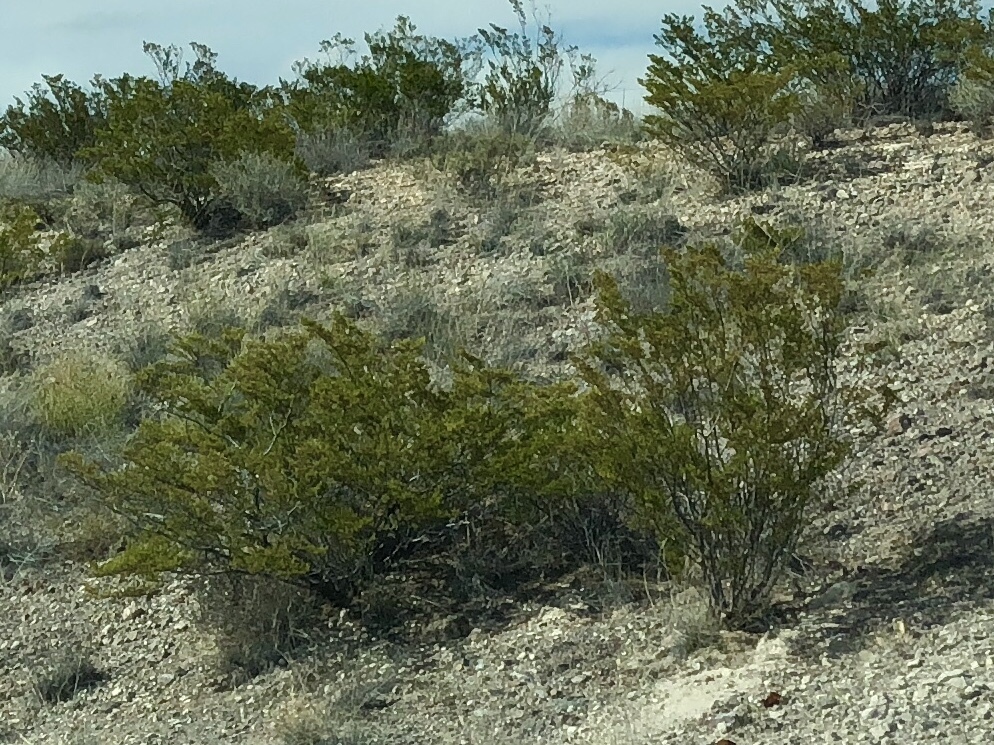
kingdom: Plantae
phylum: Tracheophyta
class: Magnoliopsida
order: Zygophyllales
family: Zygophyllaceae
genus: Larrea
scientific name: Larrea tridentata
